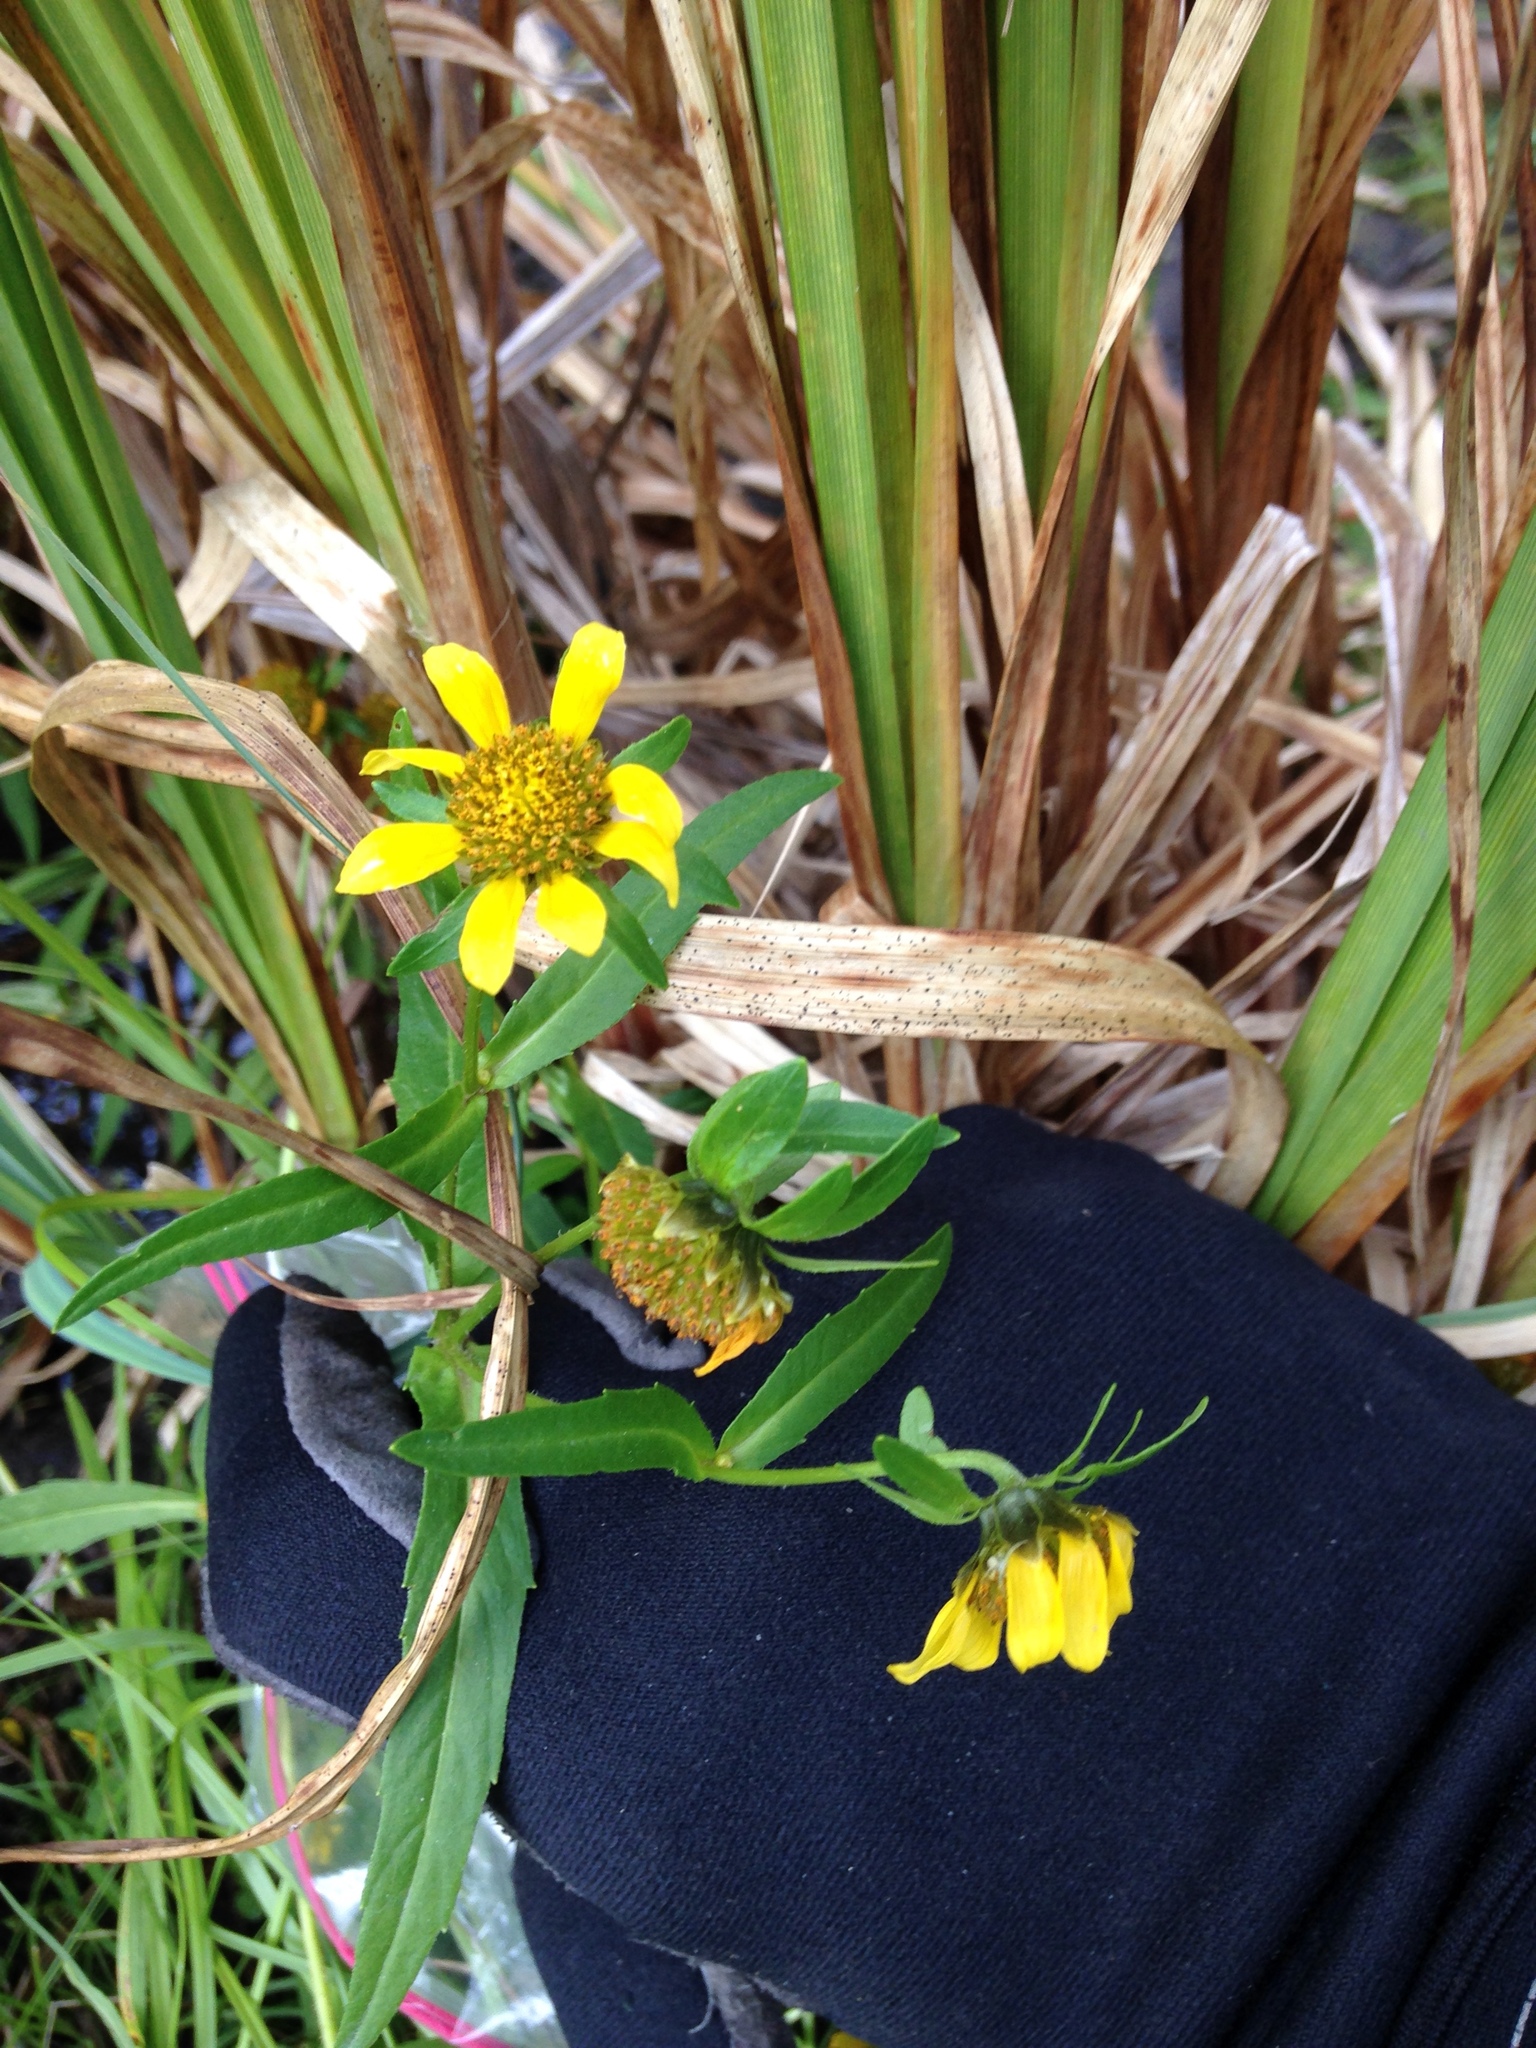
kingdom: Plantae
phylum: Tracheophyta
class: Magnoliopsida
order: Asterales
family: Asteraceae
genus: Bidens
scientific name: Bidens cernua
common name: Nodding bur-marigold
